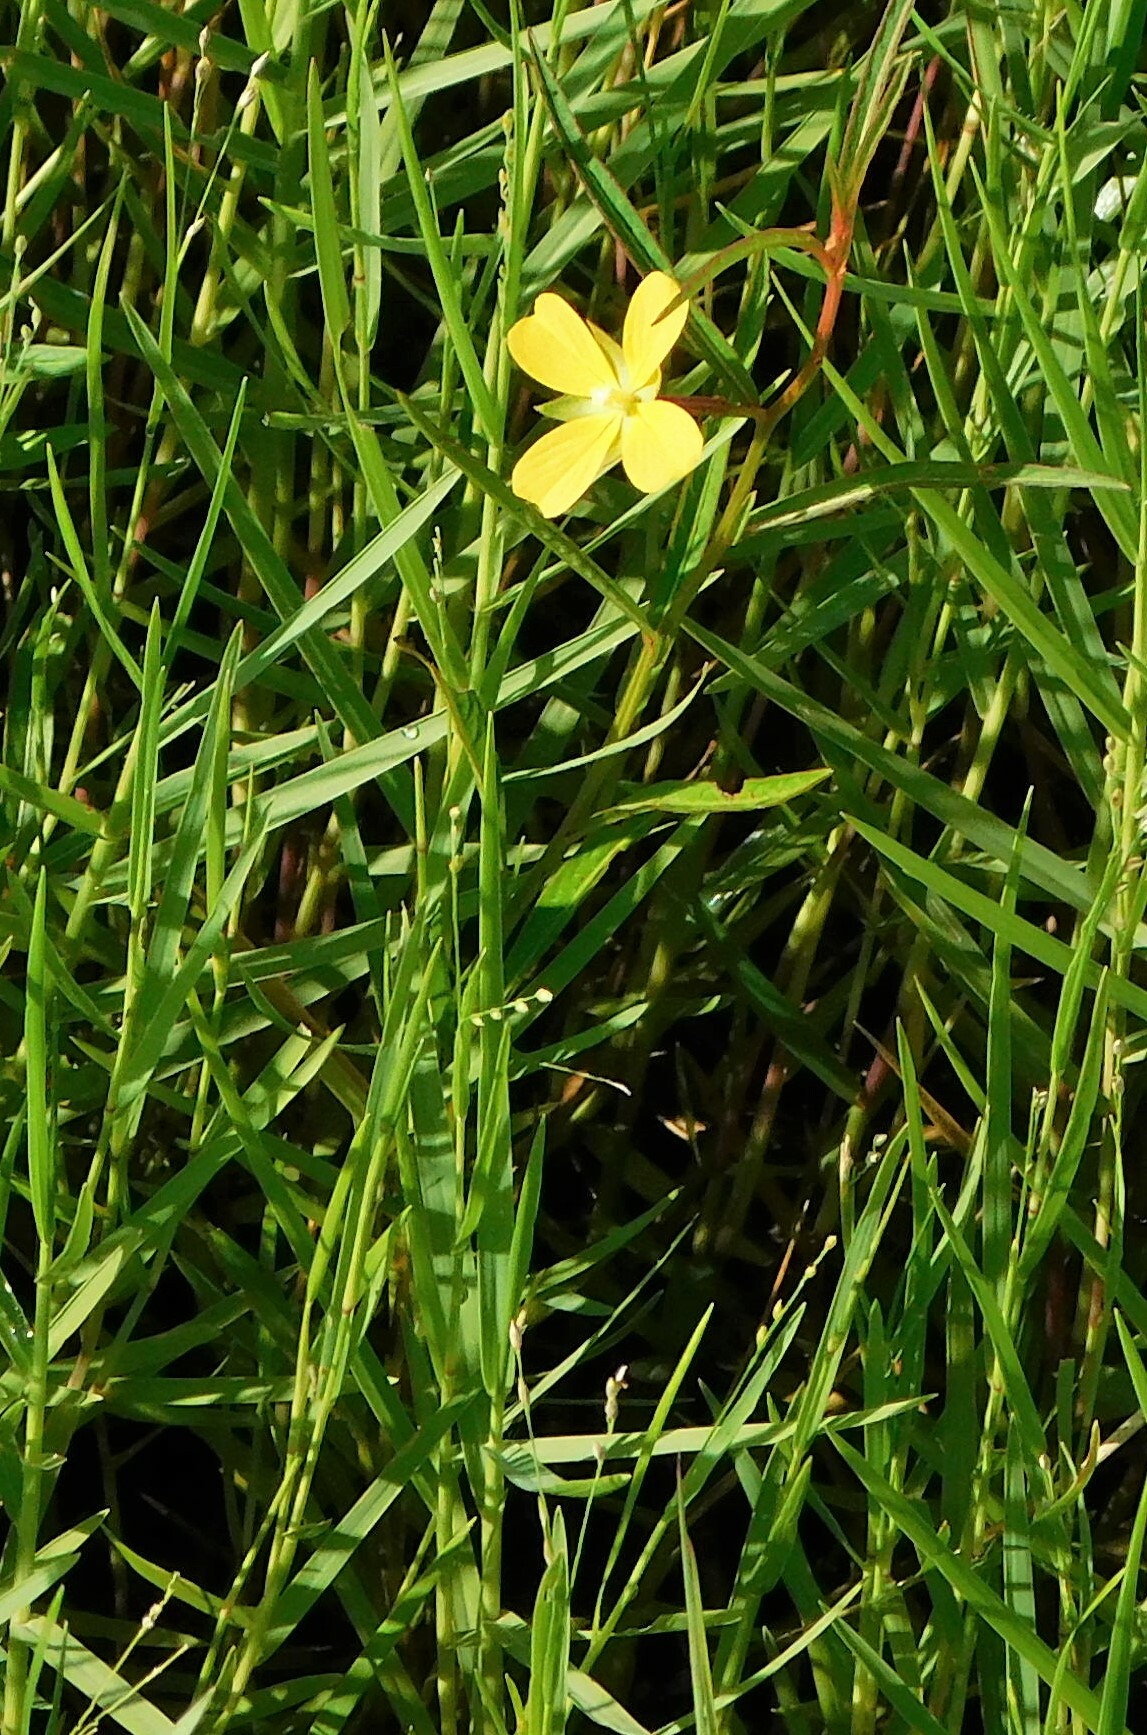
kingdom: Plantae
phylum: Tracheophyta
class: Magnoliopsida
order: Myrtales
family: Onagraceae
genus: Ludwigia
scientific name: Ludwigia octovalvis
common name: Water-primrose
